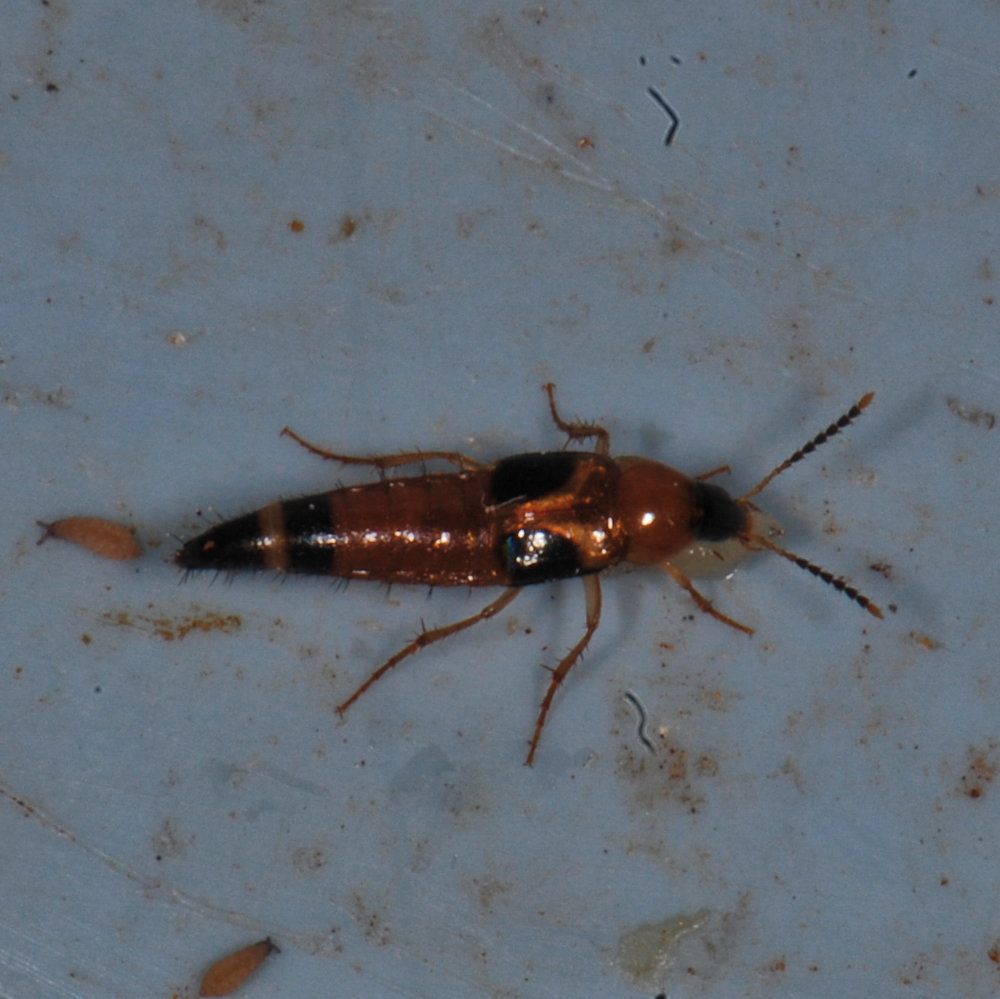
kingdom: Animalia
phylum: Arthropoda
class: Insecta
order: Coleoptera
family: Staphylinidae
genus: Lordithon
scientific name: Lordithon cinctus
